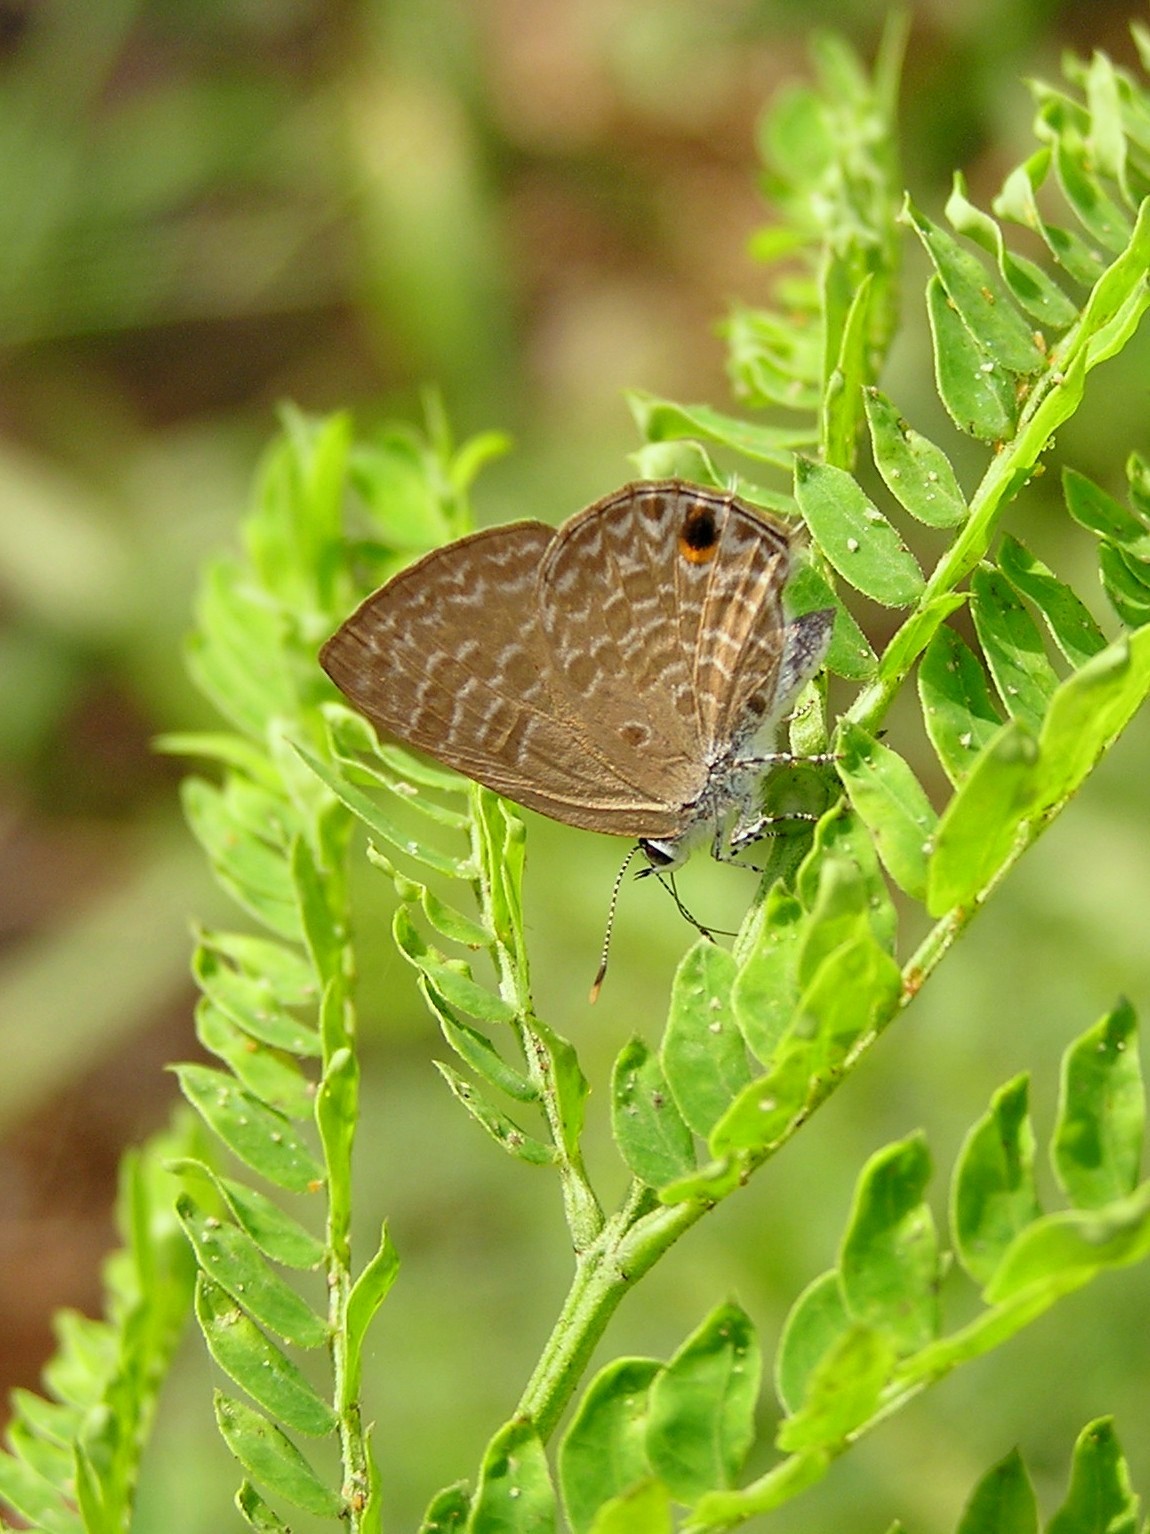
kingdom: Animalia
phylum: Arthropoda
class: Insecta
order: Lepidoptera
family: Lycaenidae
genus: Anthene
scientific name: Anthene lycaenina
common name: Pointed ciliate blue
